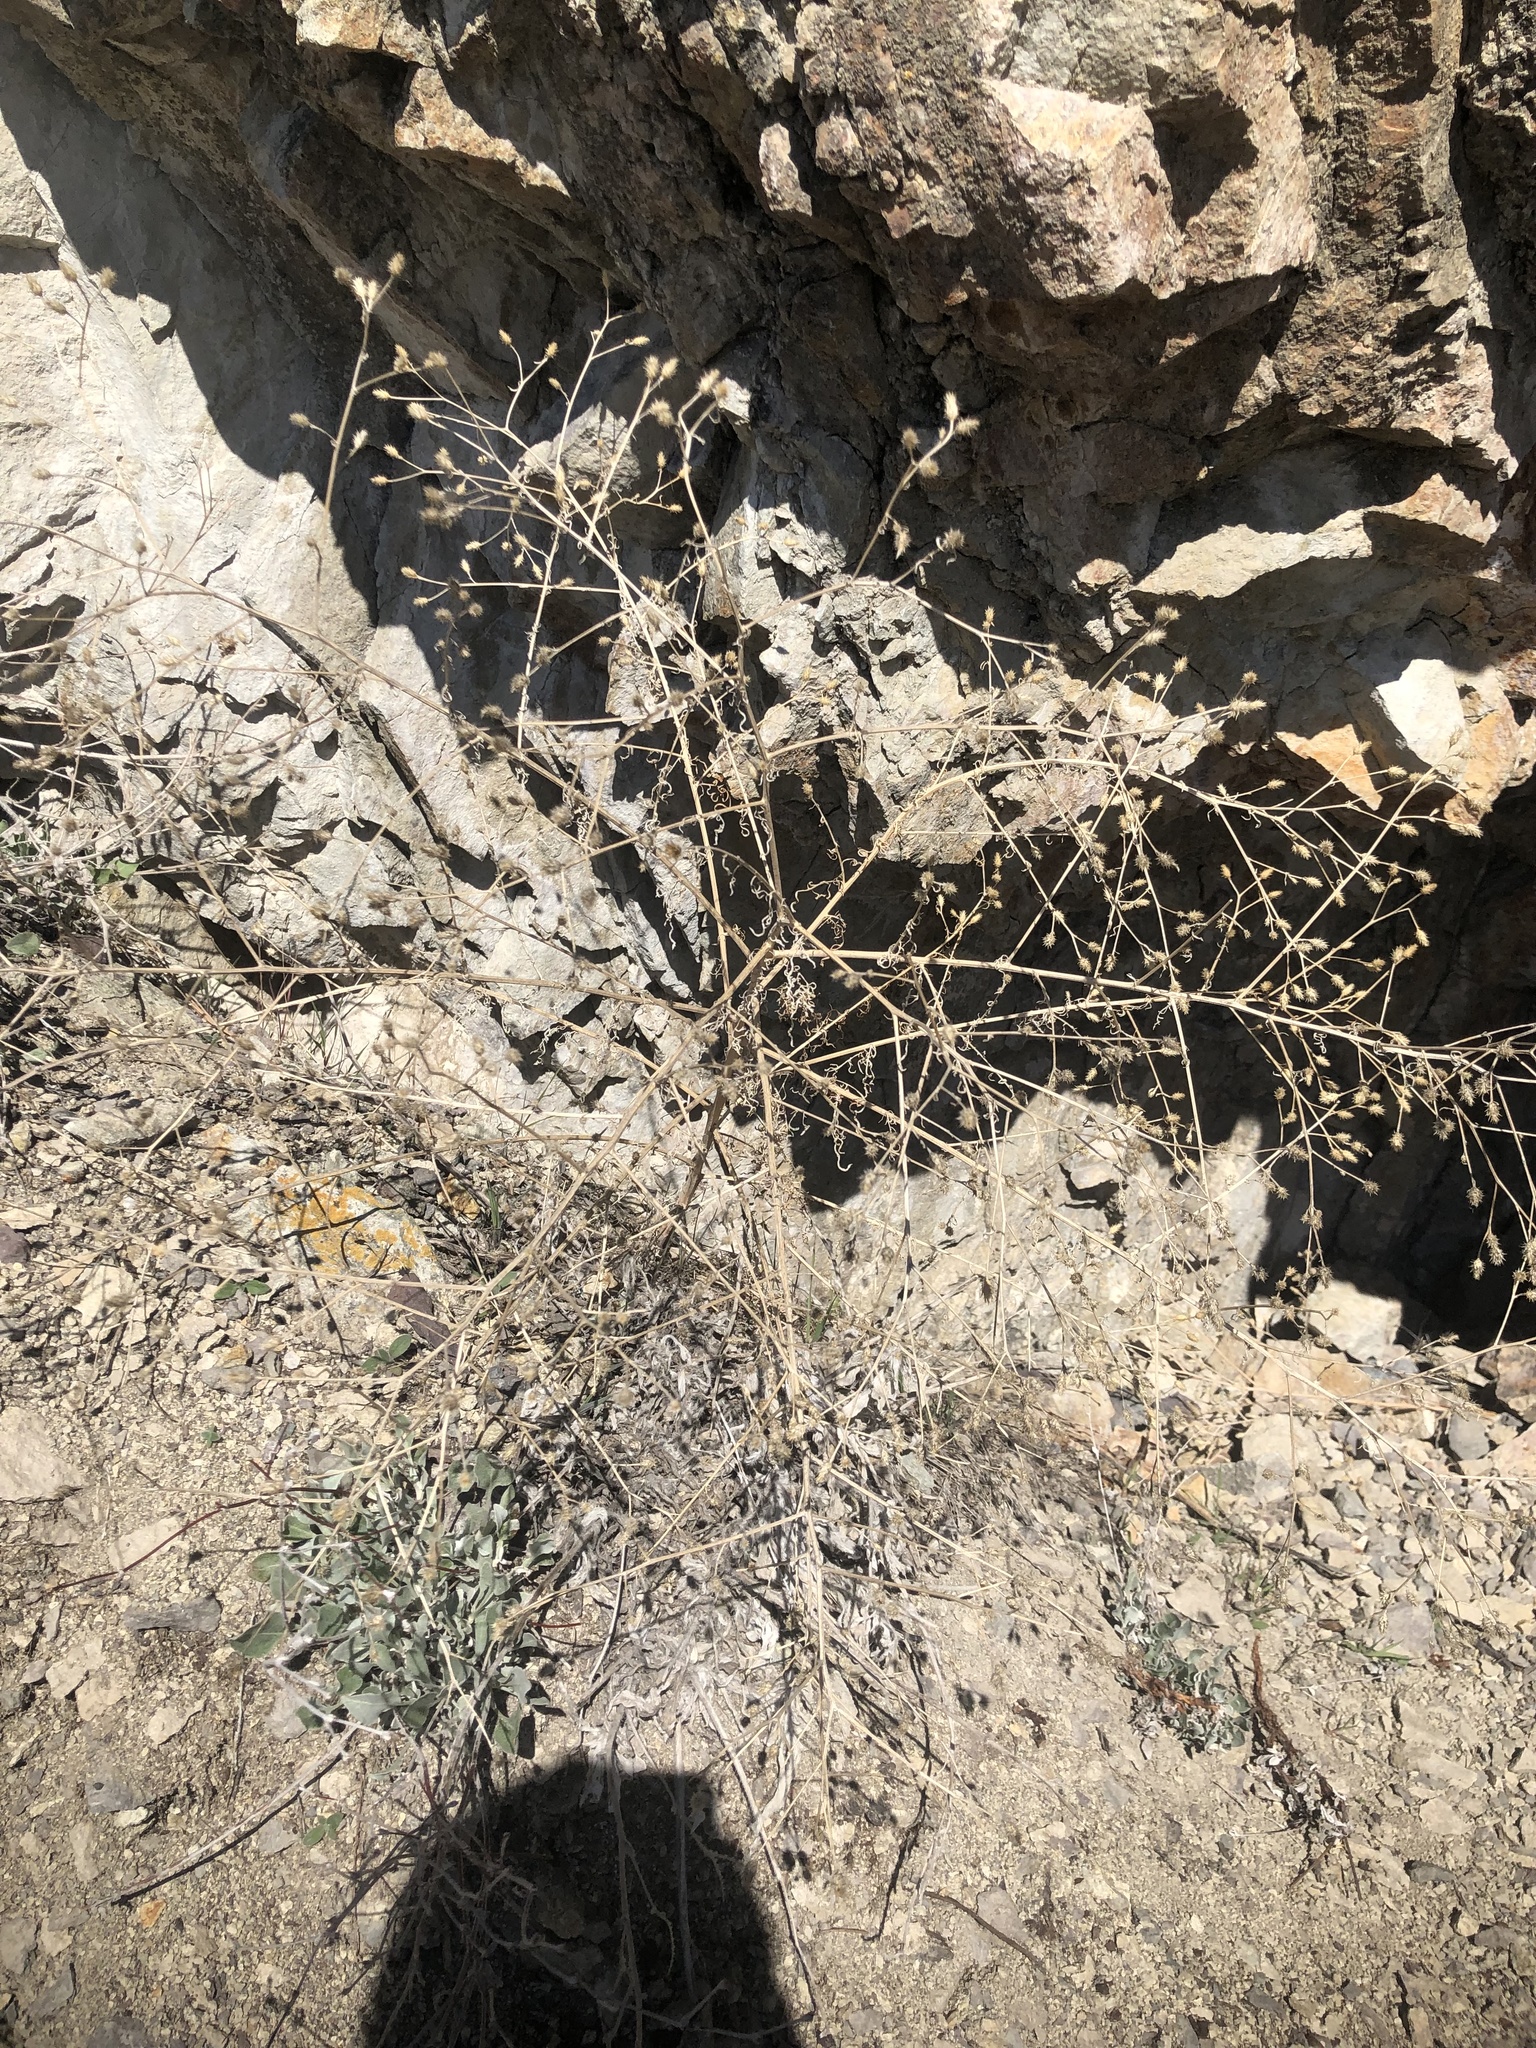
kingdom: Plantae
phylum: Tracheophyta
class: Magnoliopsida
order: Asterales
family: Asteraceae
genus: Centaurea
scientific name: Centaurea diffusa
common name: Diffuse knapweed
